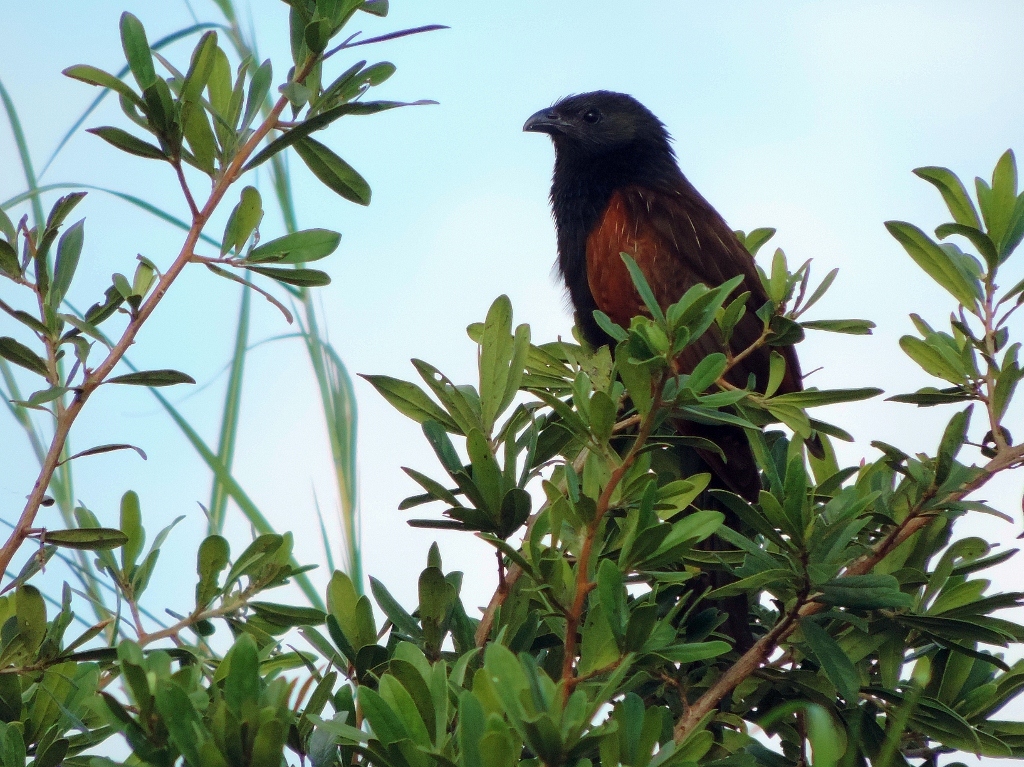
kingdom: Animalia
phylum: Chordata
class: Aves
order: Cuculiformes
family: Cuculidae
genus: Centropus
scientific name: Centropus grillii
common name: Black coucal
